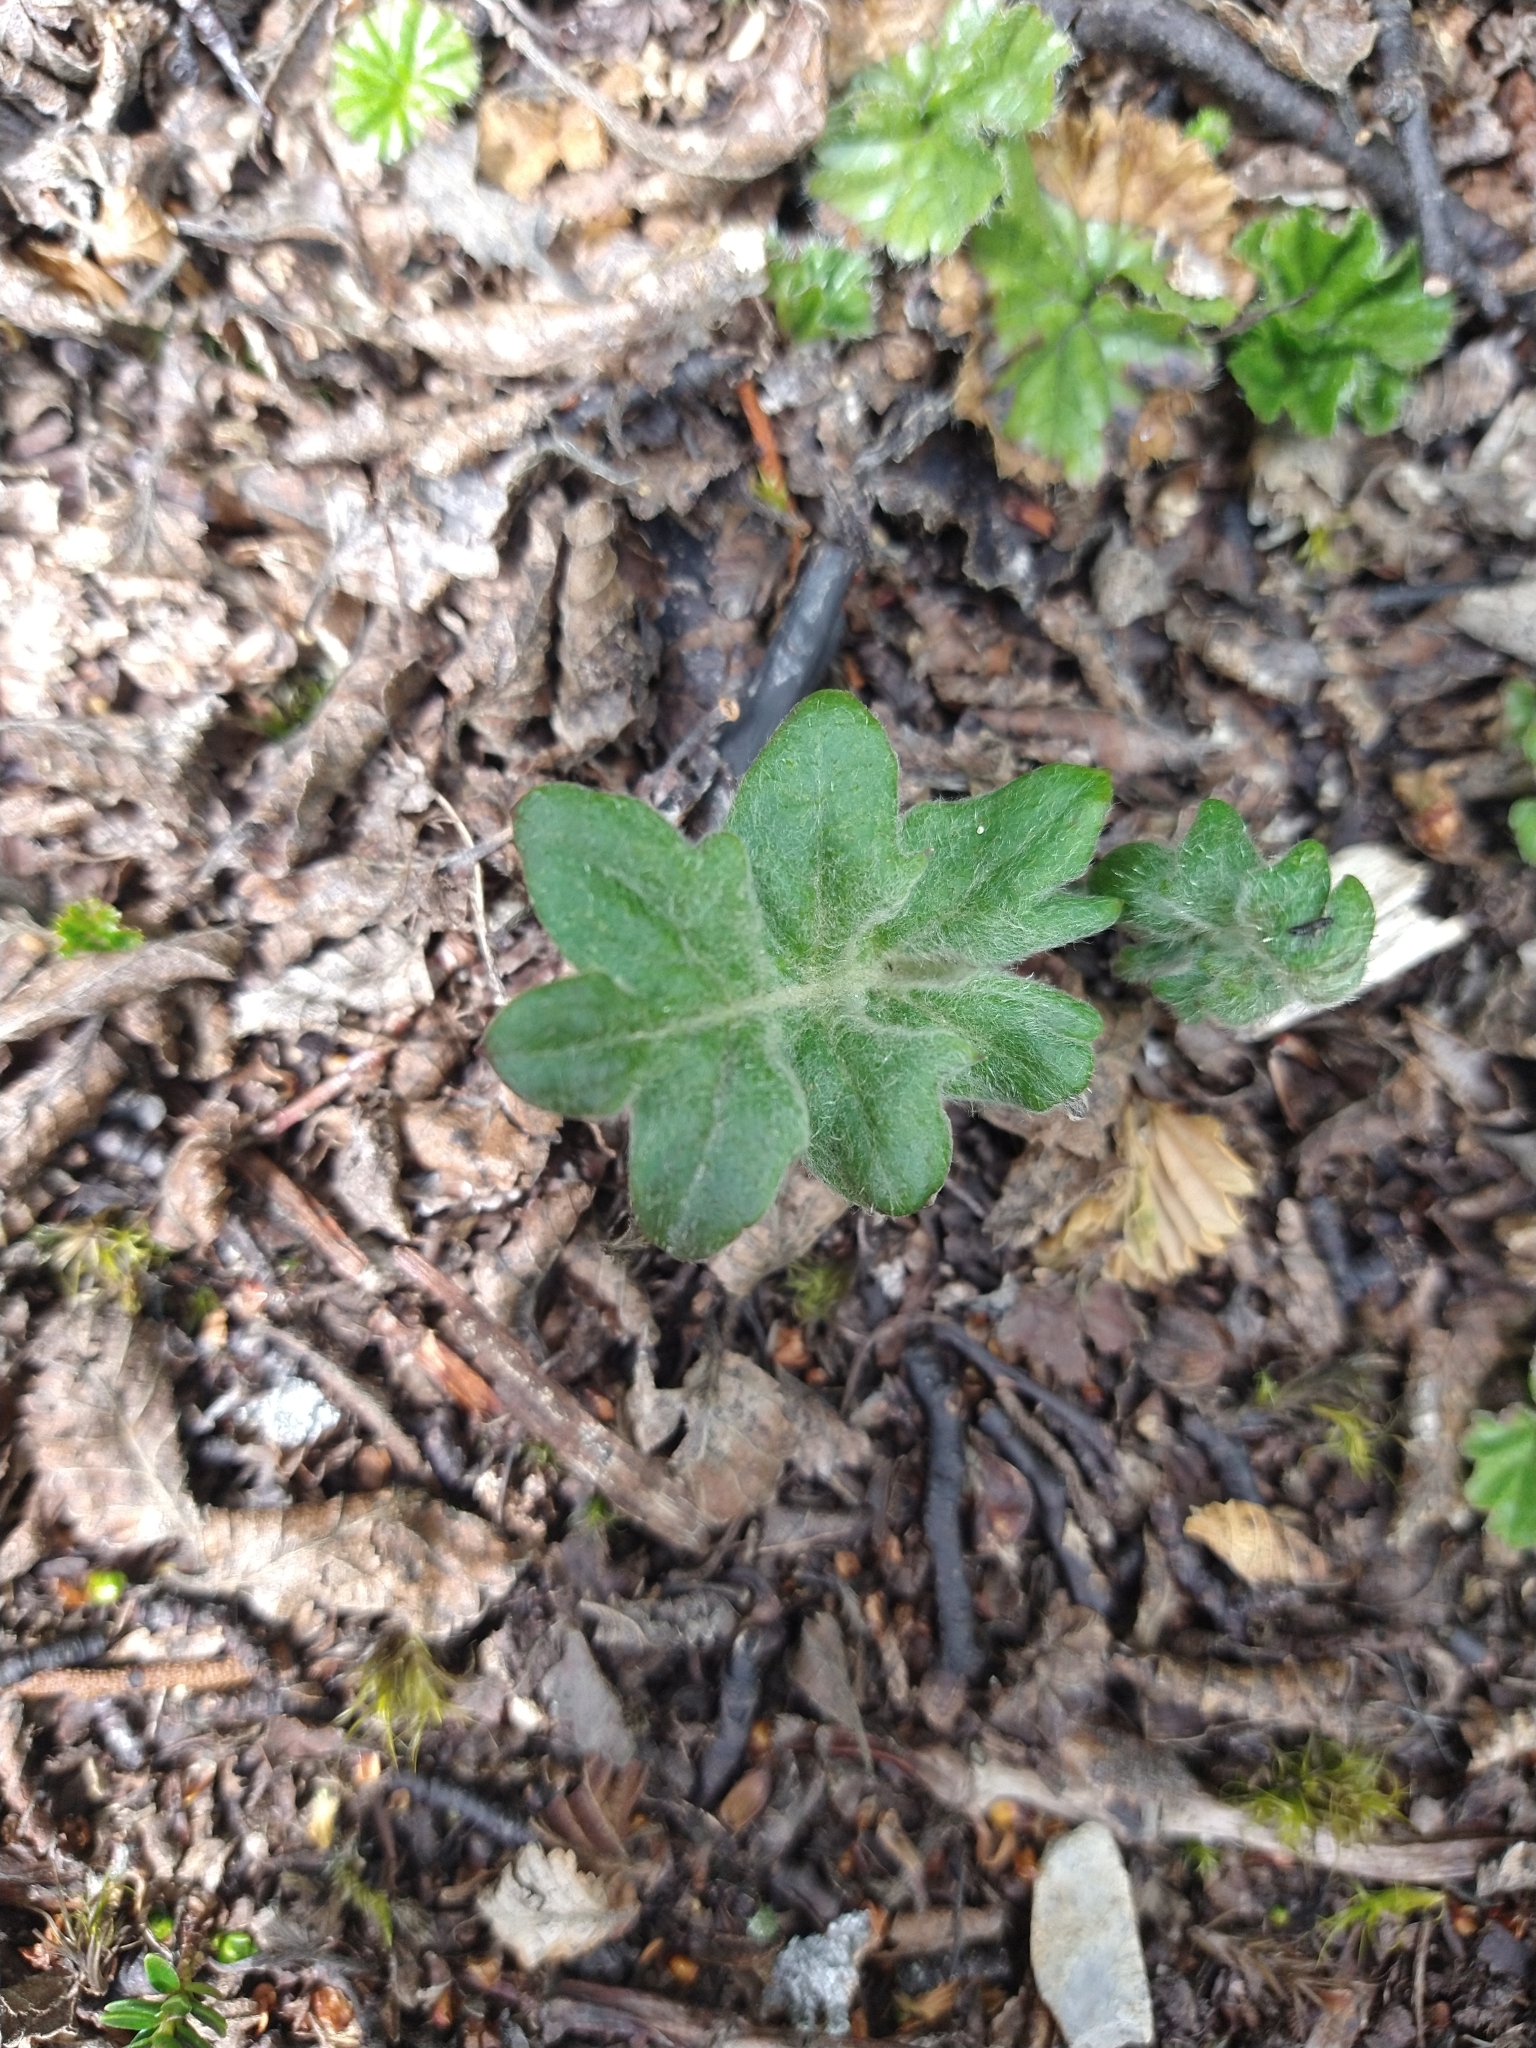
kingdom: Plantae
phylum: Tracheophyta
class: Magnoliopsida
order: Asterales
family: Asteraceae
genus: Macrachaenium
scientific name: Macrachaenium gracile
